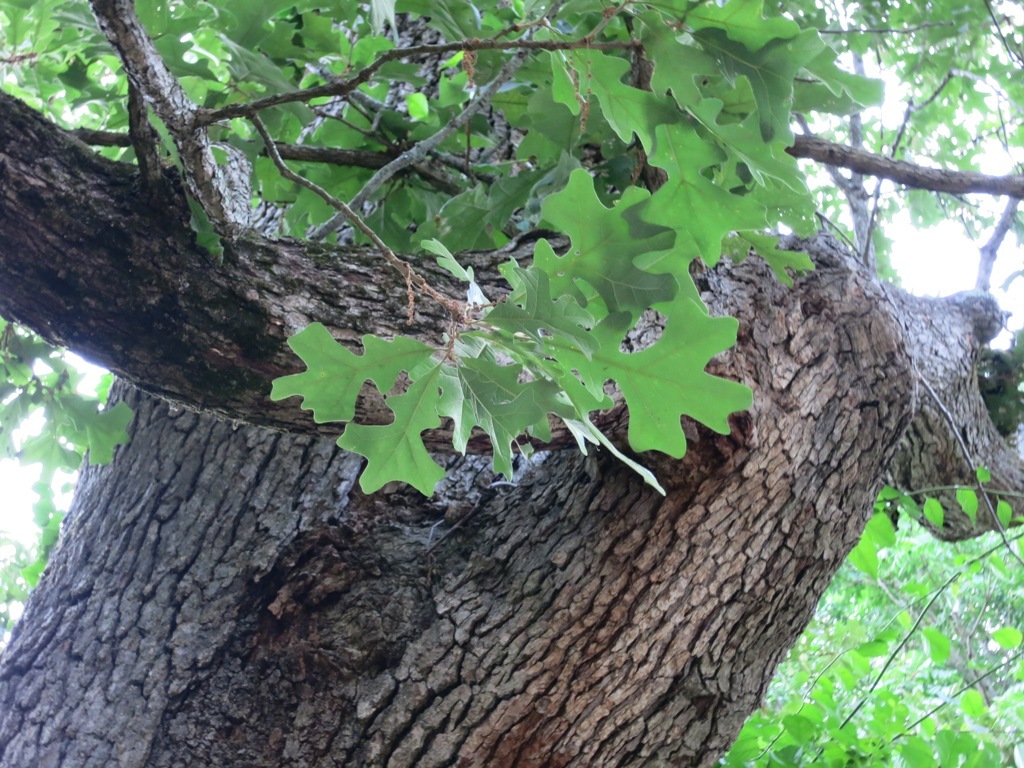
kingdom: Plantae
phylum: Tracheophyta
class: Magnoliopsida
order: Fagales
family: Fagaceae
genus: Quercus
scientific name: Quercus stellata
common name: Post oak
